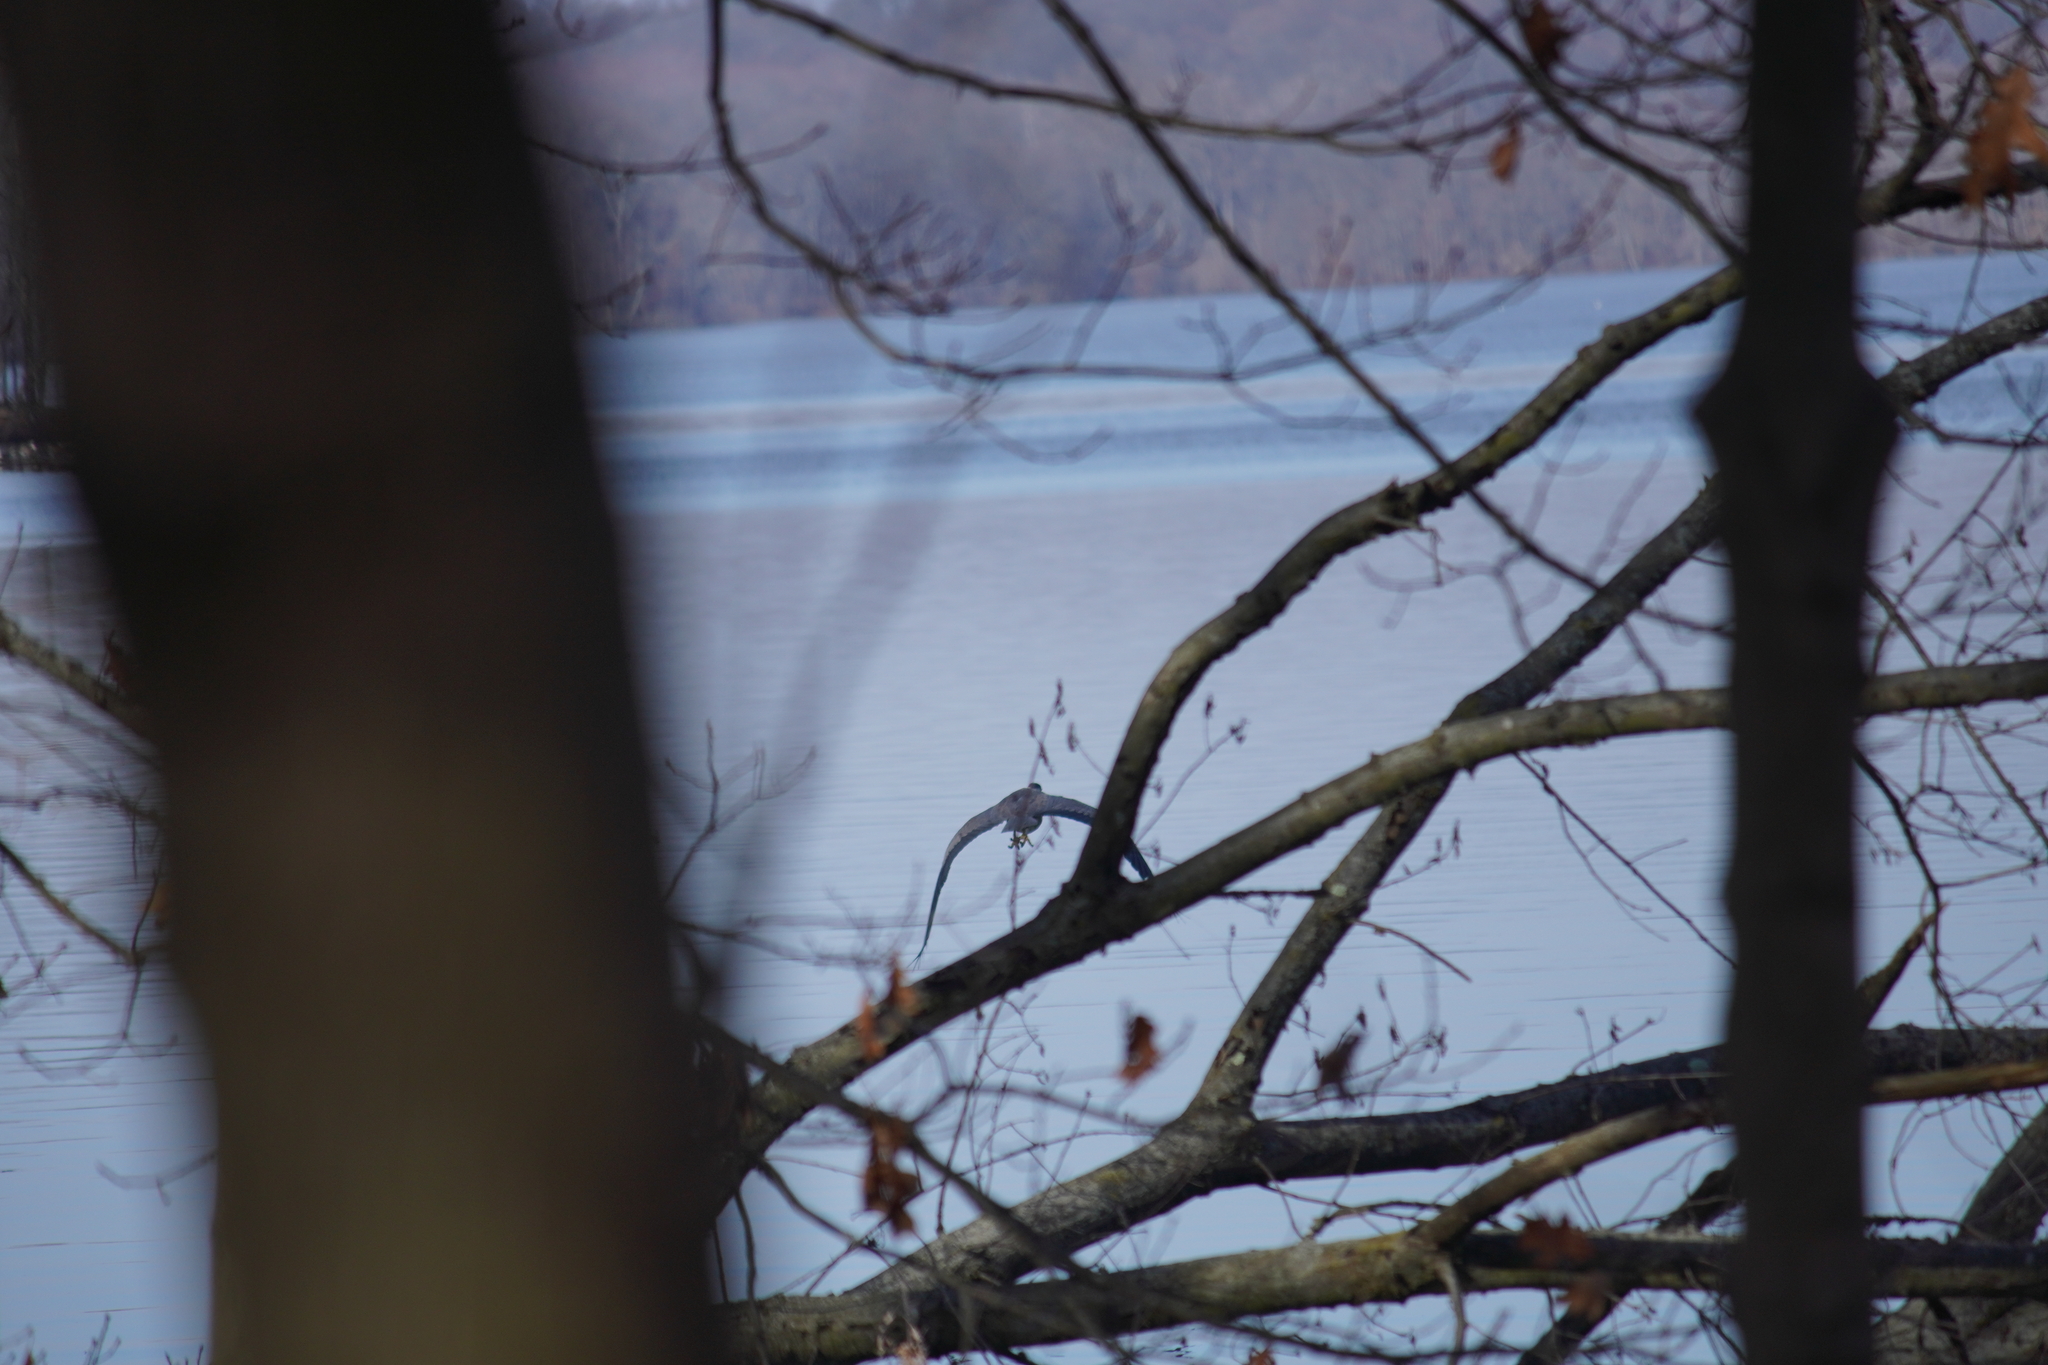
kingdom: Animalia
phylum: Chordata
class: Aves
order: Pelecaniformes
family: Ardeidae
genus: Ardea
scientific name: Ardea herodias
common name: Great blue heron
